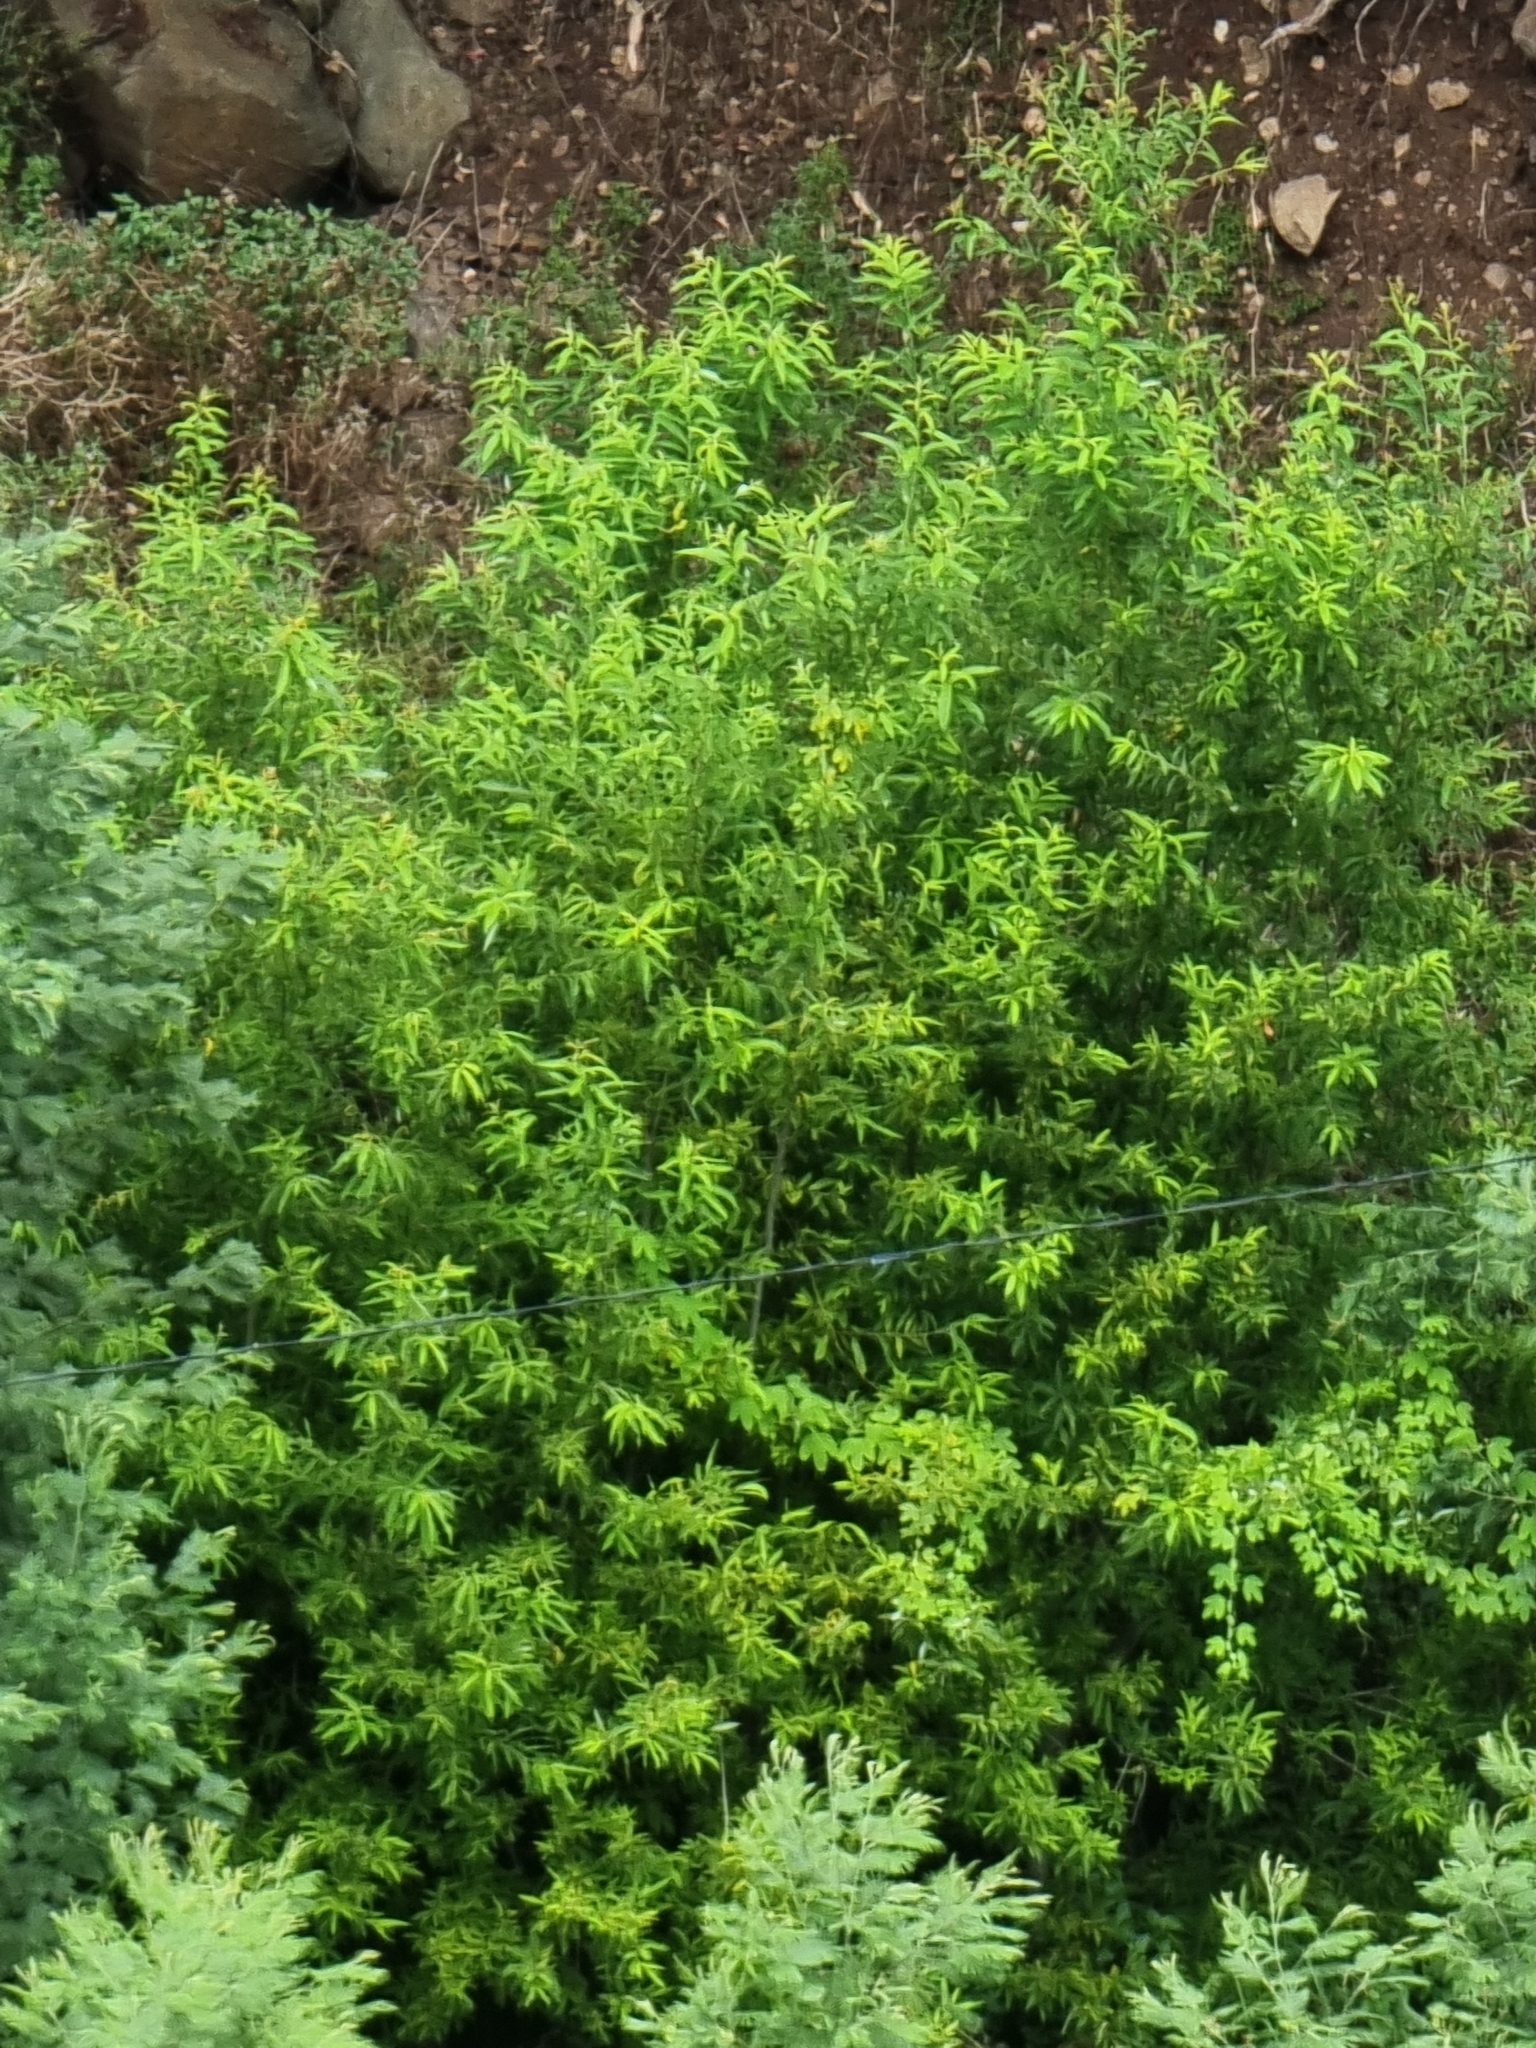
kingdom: Plantae
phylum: Tracheophyta
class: Magnoliopsida
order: Malpighiales
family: Salicaceae
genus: Salix
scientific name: Salix canariensis
